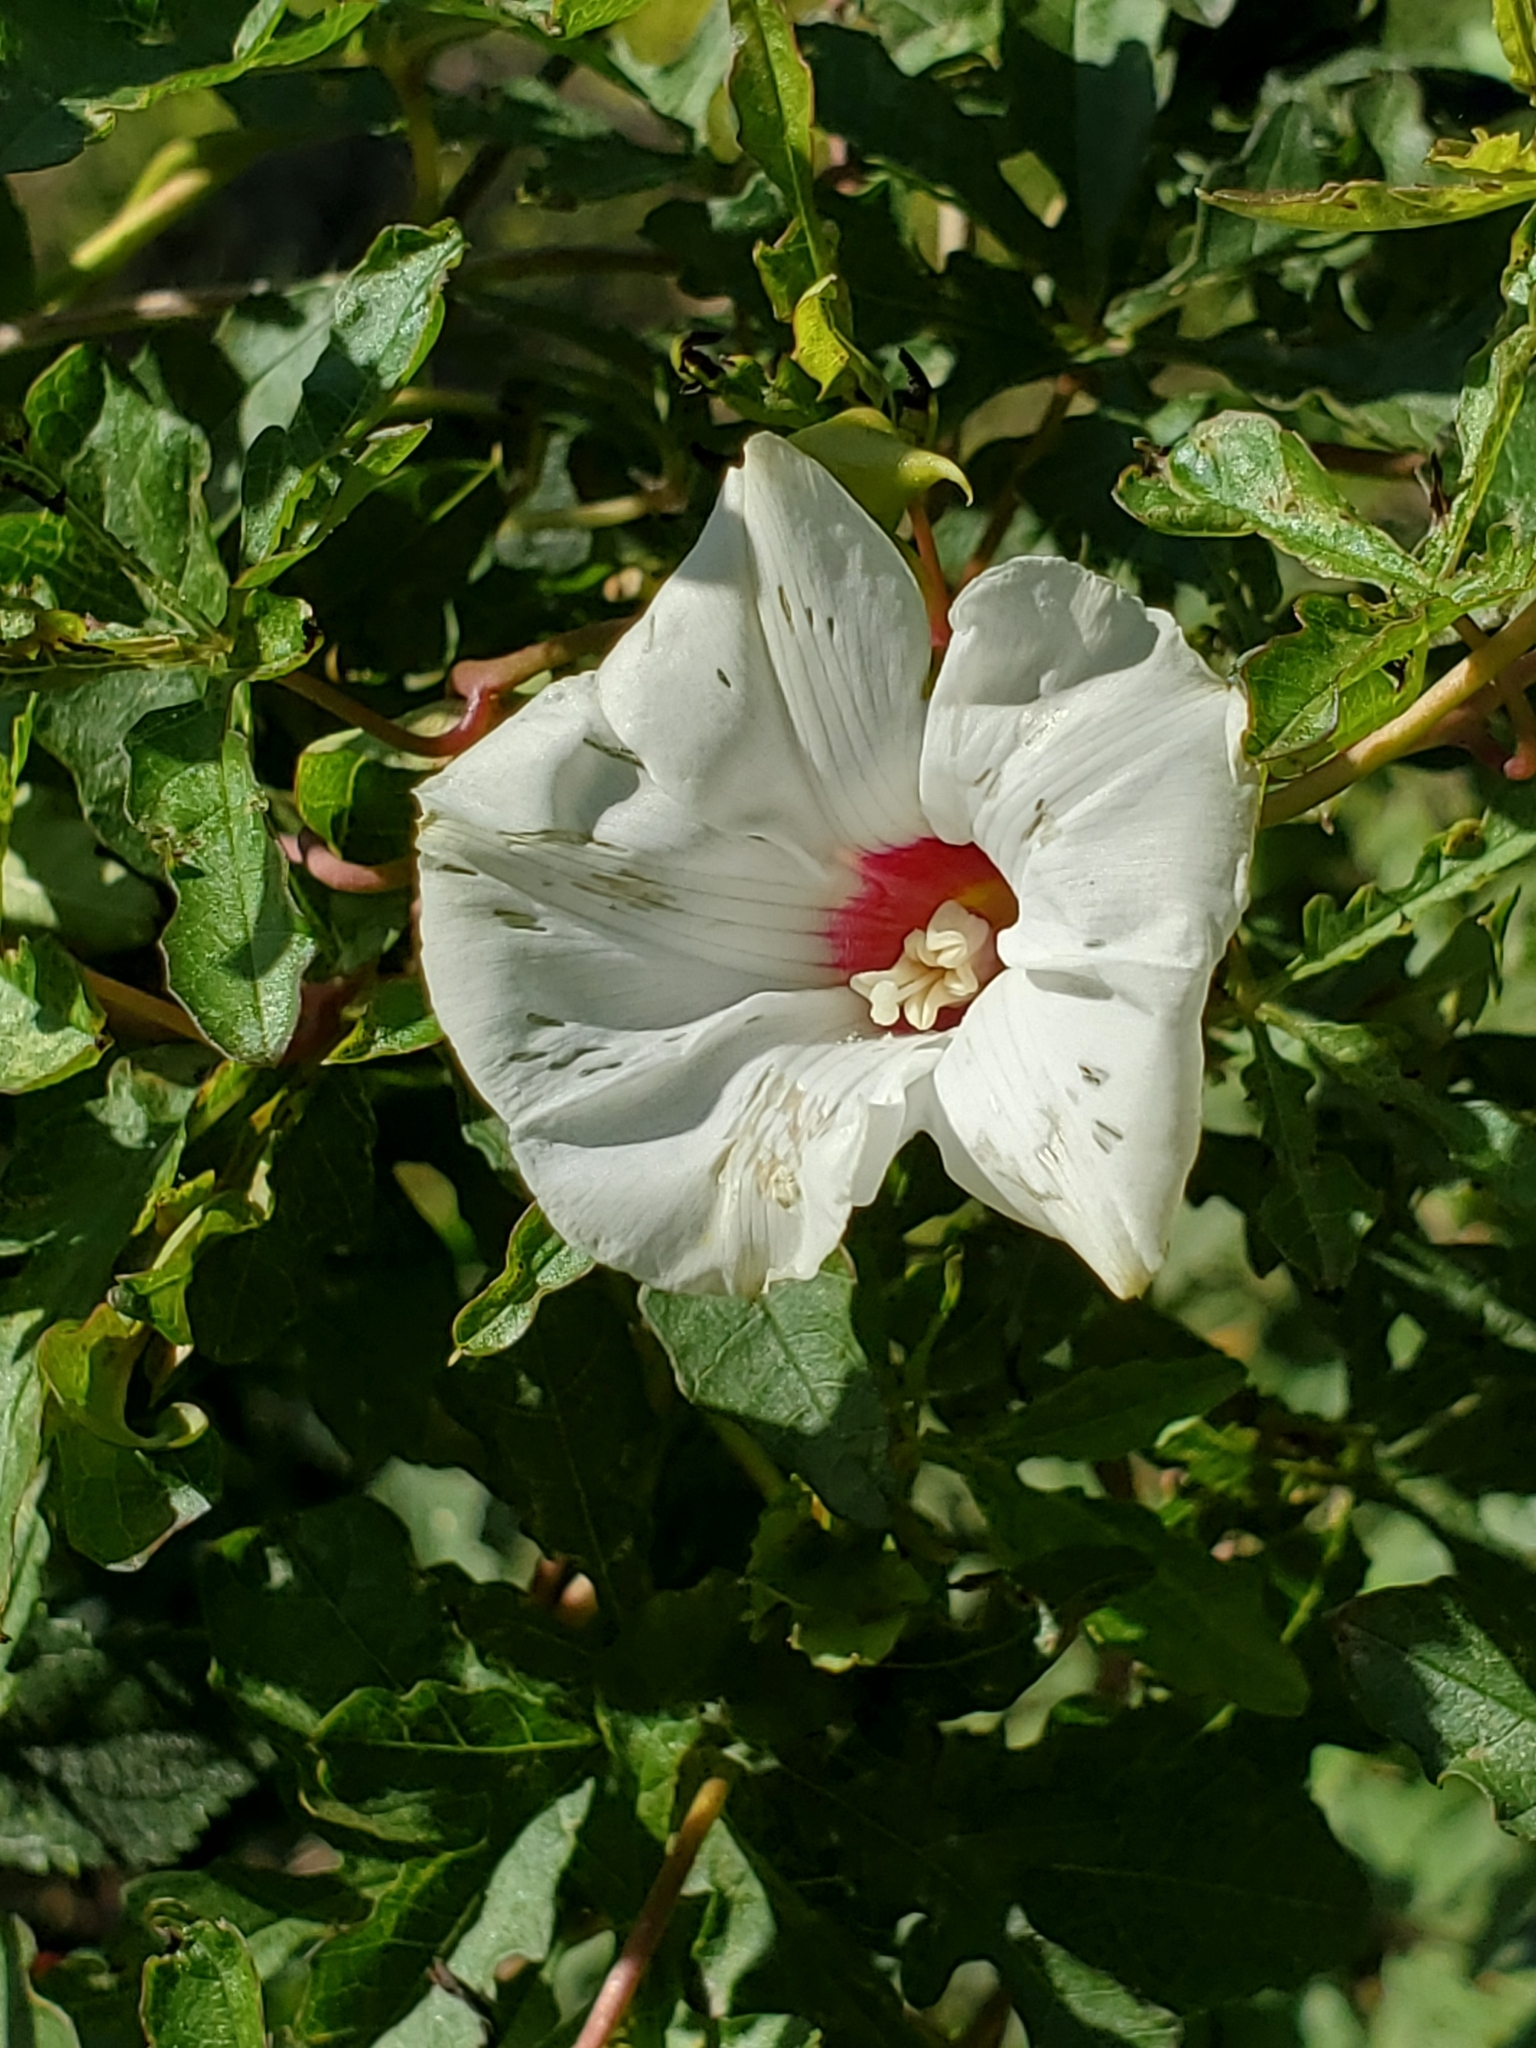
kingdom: Plantae
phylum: Tracheophyta
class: Magnoliopsida
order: Solanales
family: Convolvulaceae
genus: Distimake
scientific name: Distimake dissectus
